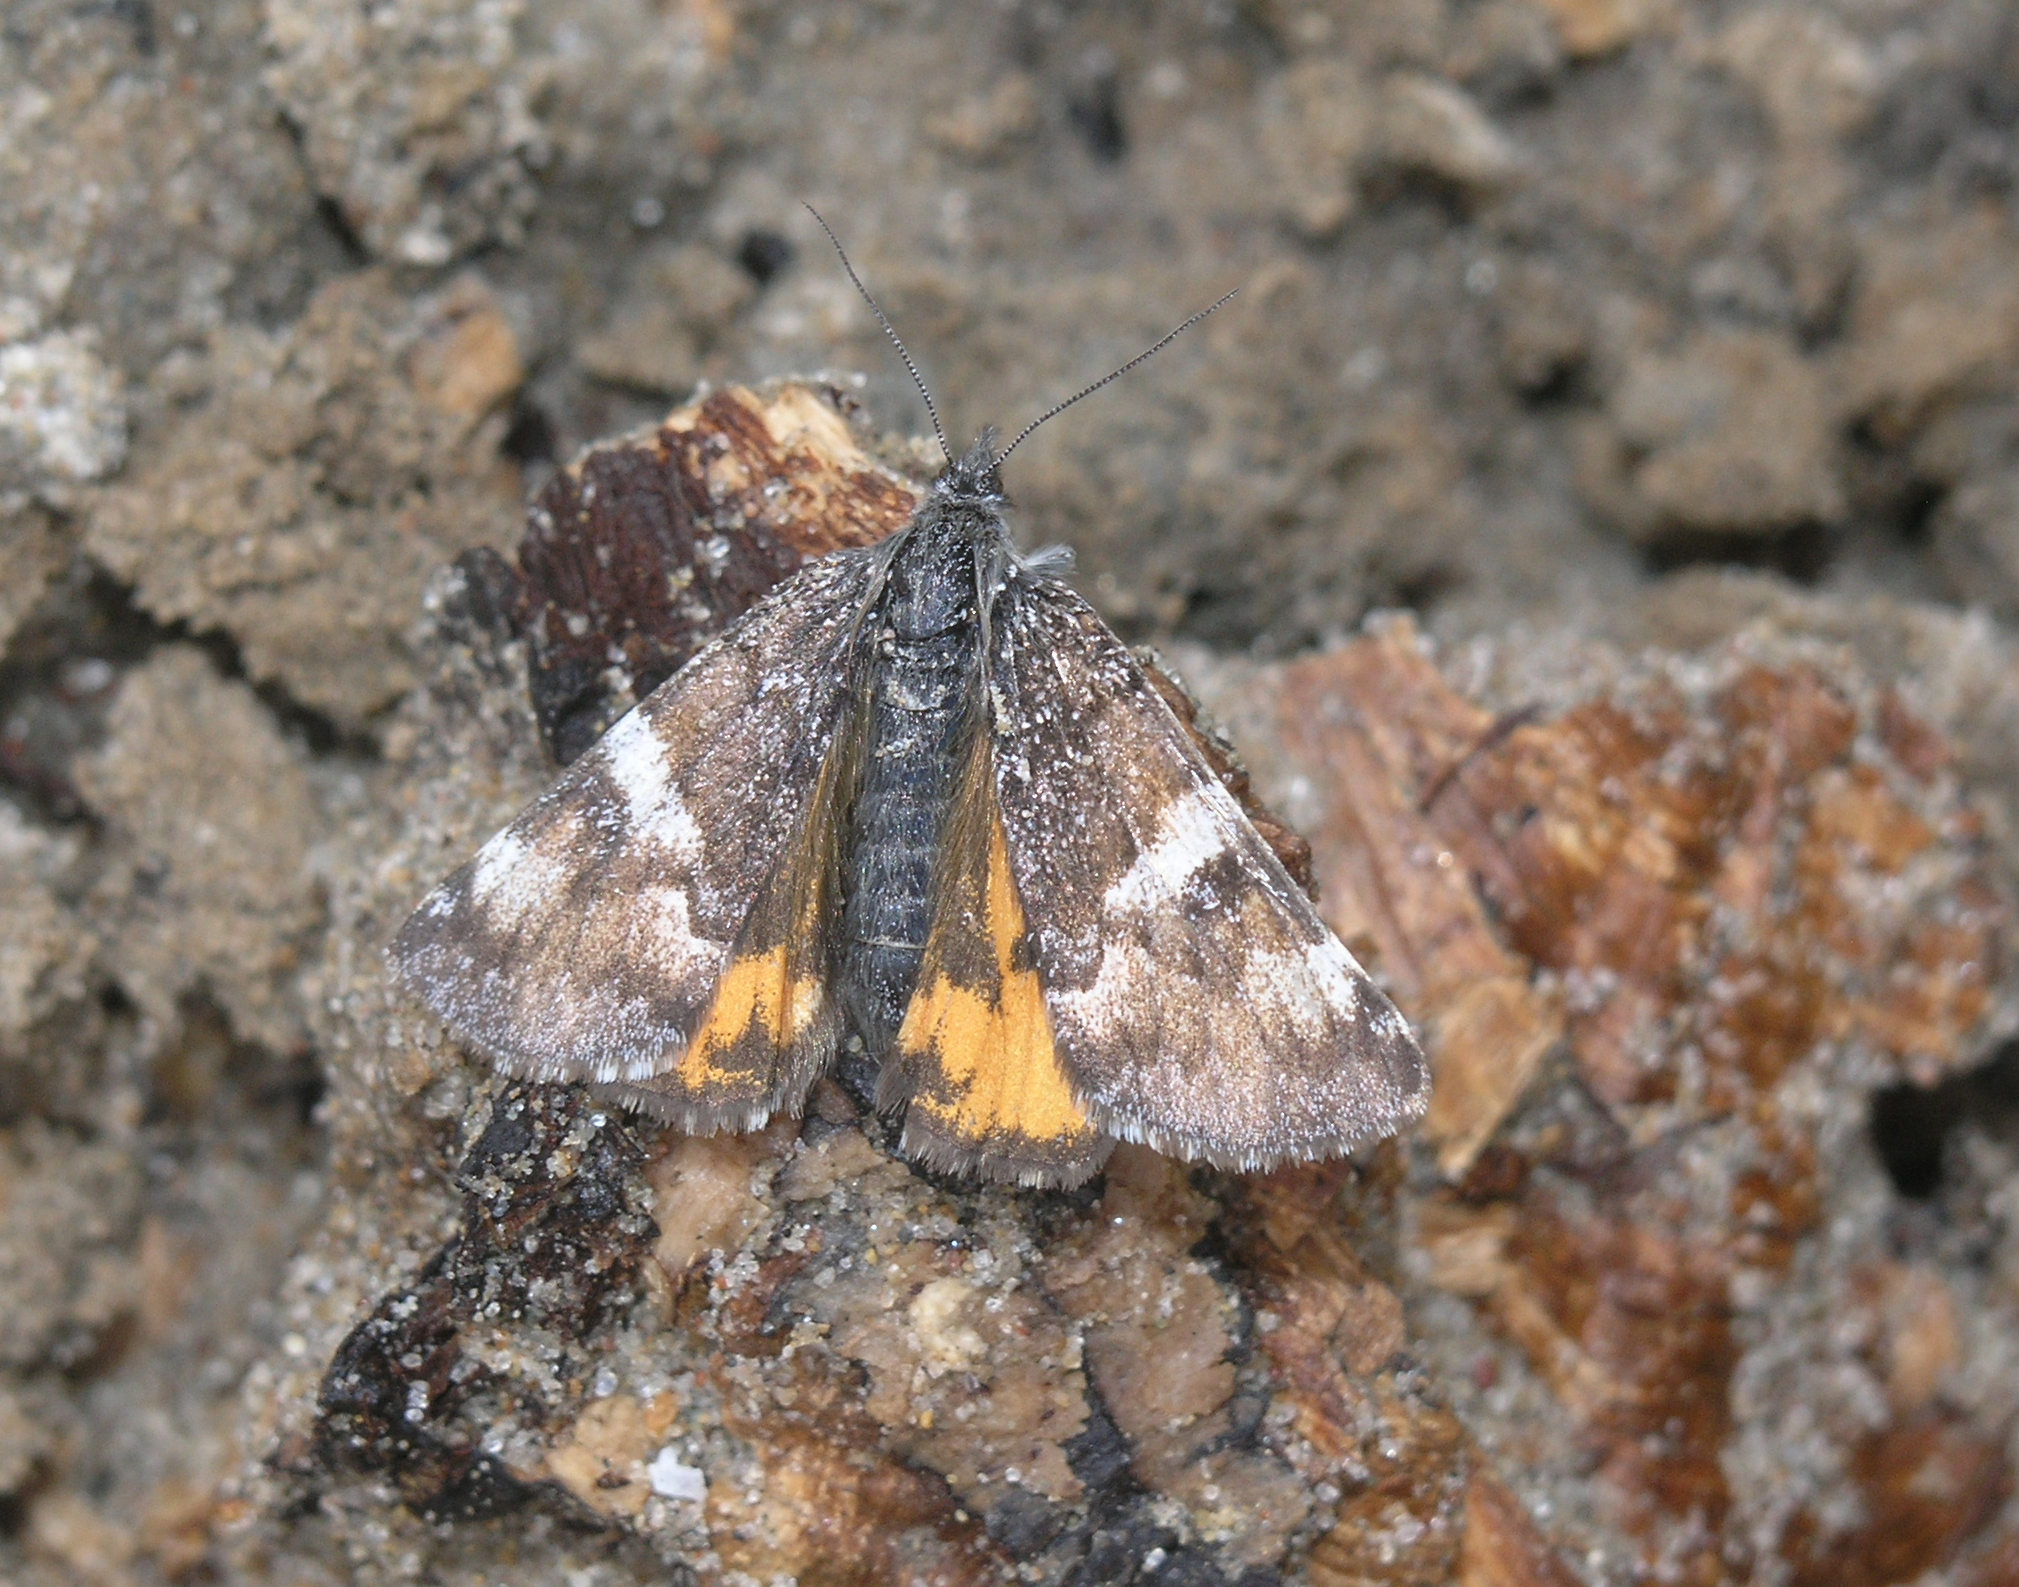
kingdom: Animalia
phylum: Arthropoda
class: Insecta
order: Lepidoptera
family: Geometridae
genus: Archiearis
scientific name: Archiearis parthenias
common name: Orange underwing
